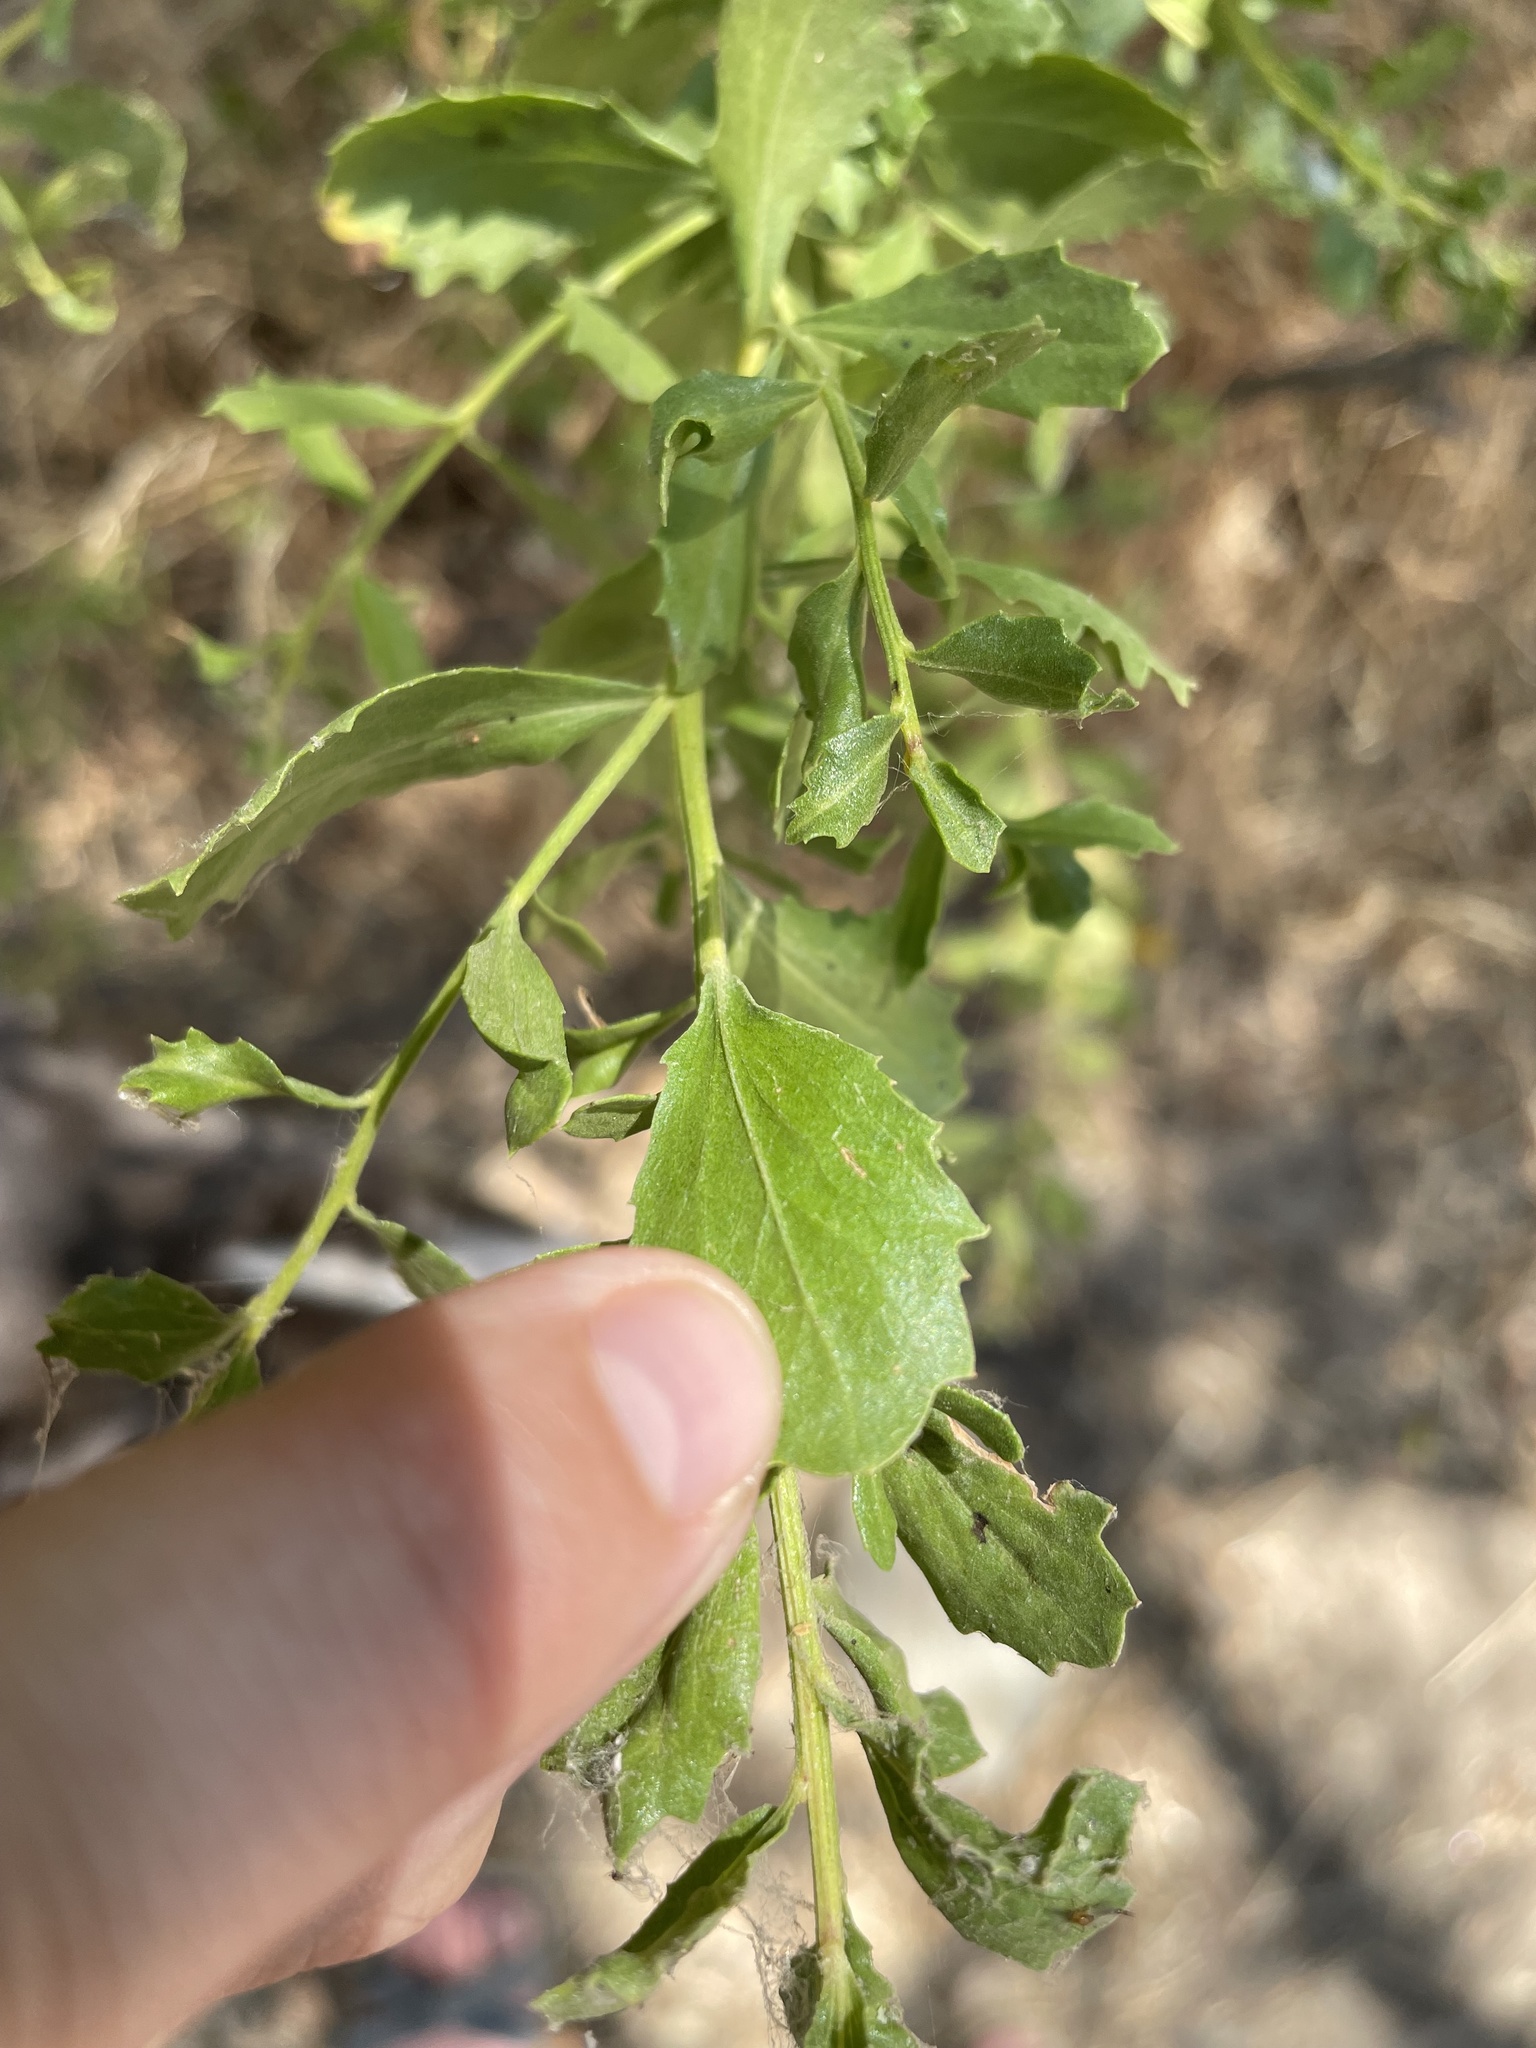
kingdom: Plantae
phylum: Tracheophyta
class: Magnoliopsida
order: Asterales
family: Asteraceae
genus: Baccharis
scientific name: Baccharis pilularis
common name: Coyotebrush
